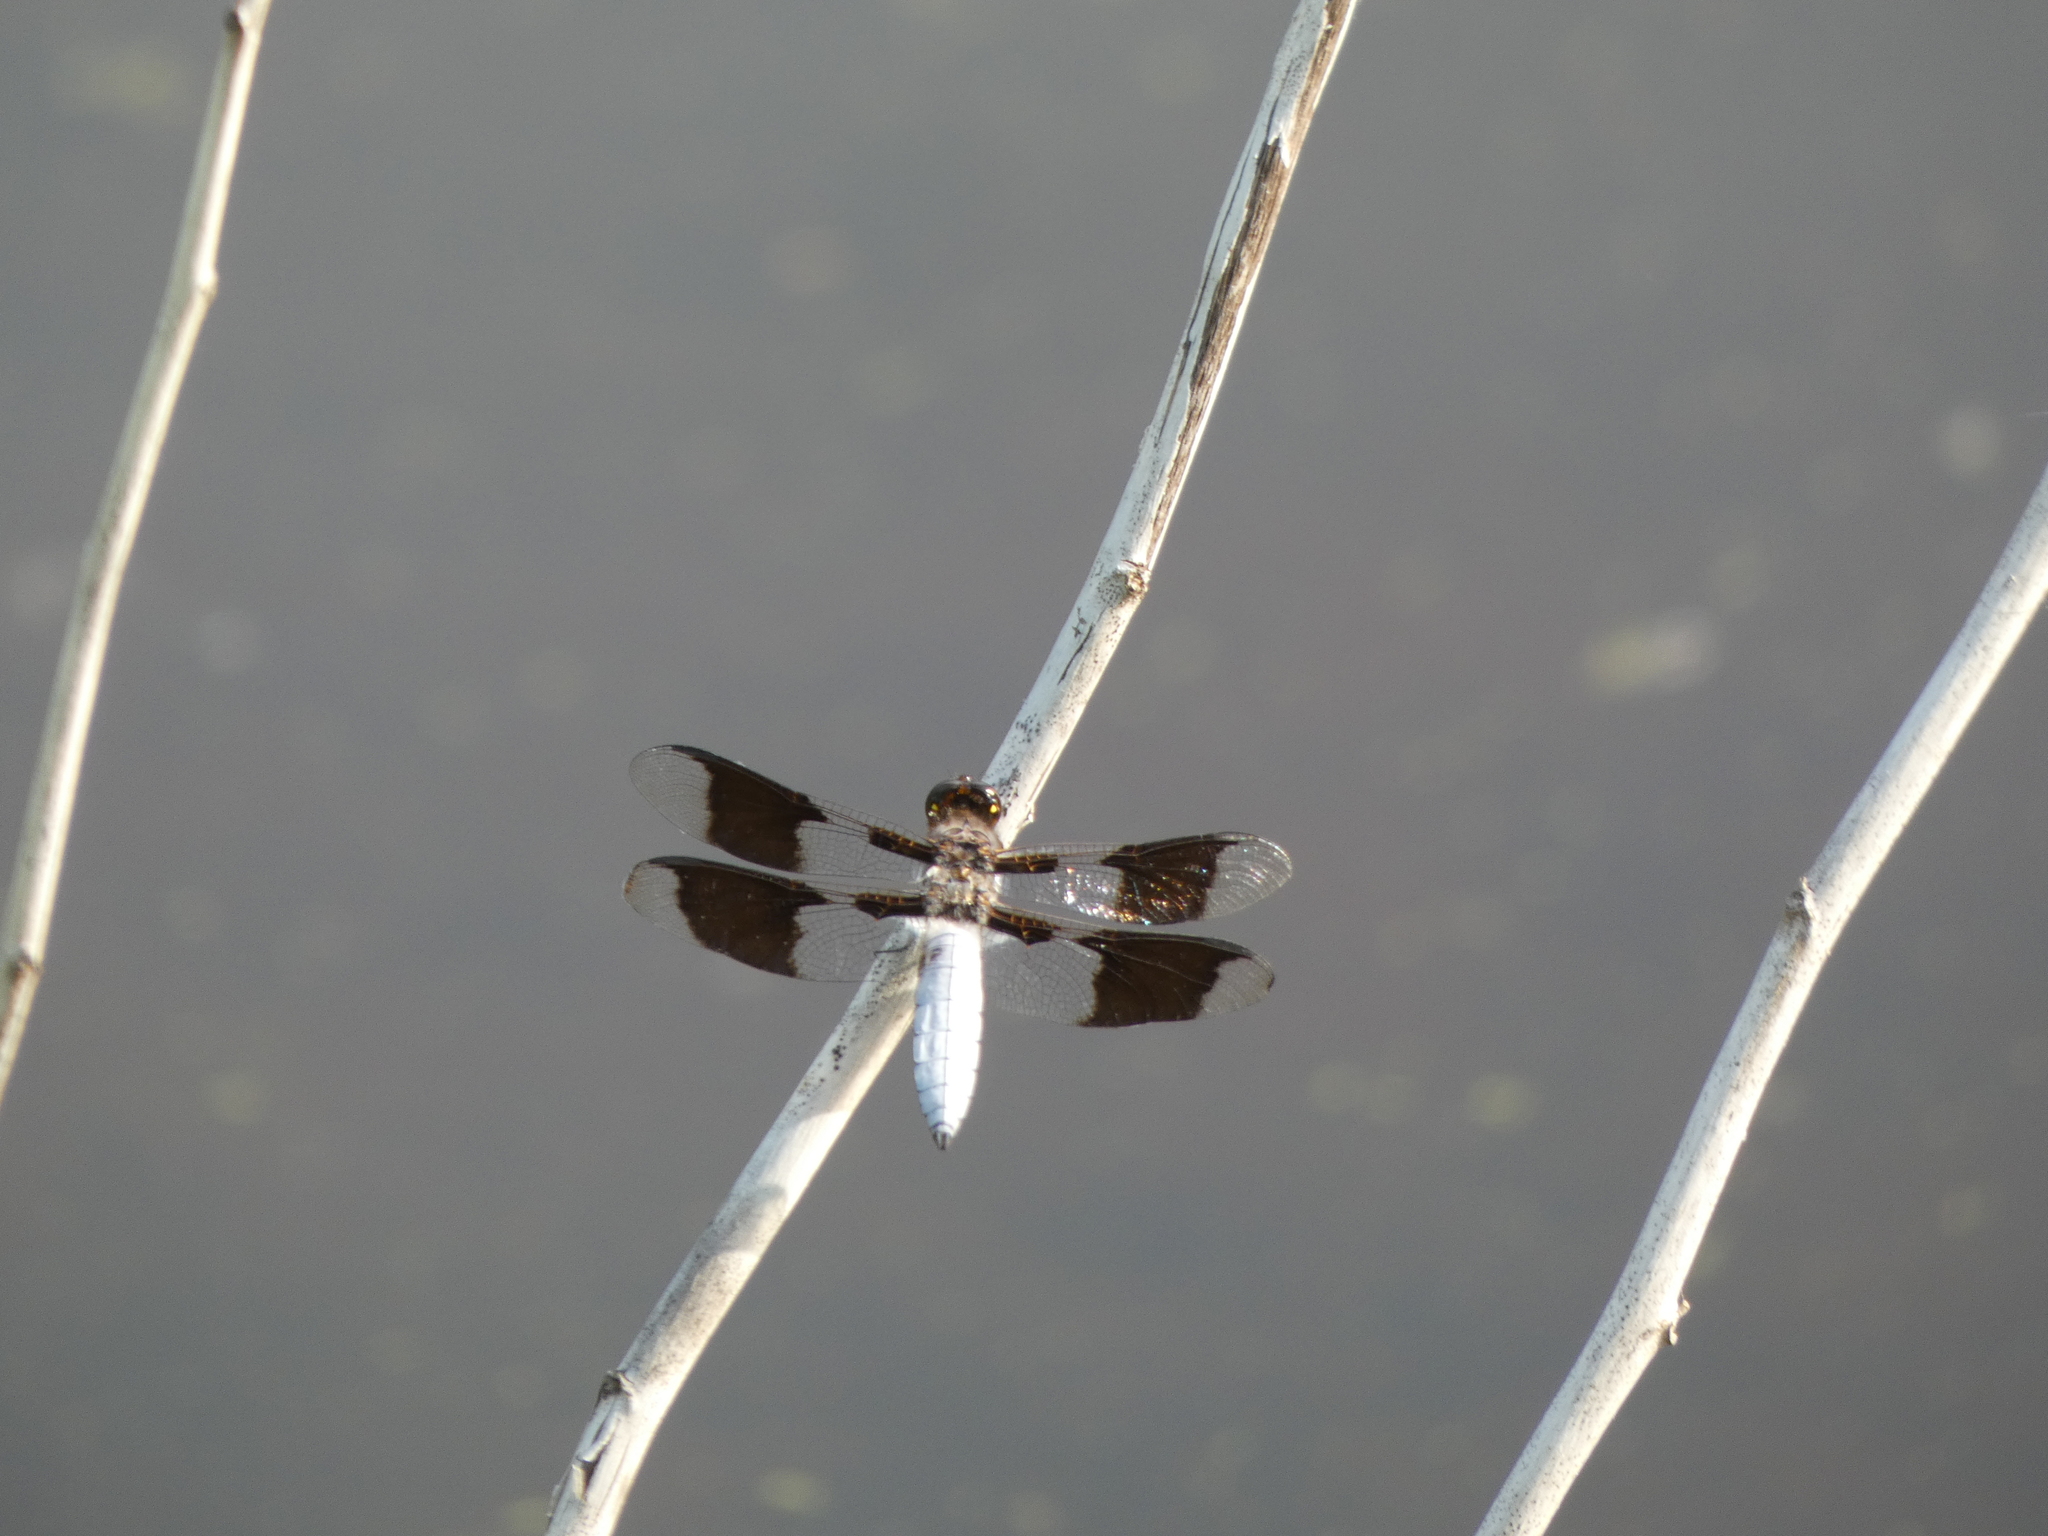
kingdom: Animalia
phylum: Arthropoda
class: Insecta
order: Odonata
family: Libellulidae
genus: Plathemis
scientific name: Plathemis lydia
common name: Common whitetail
